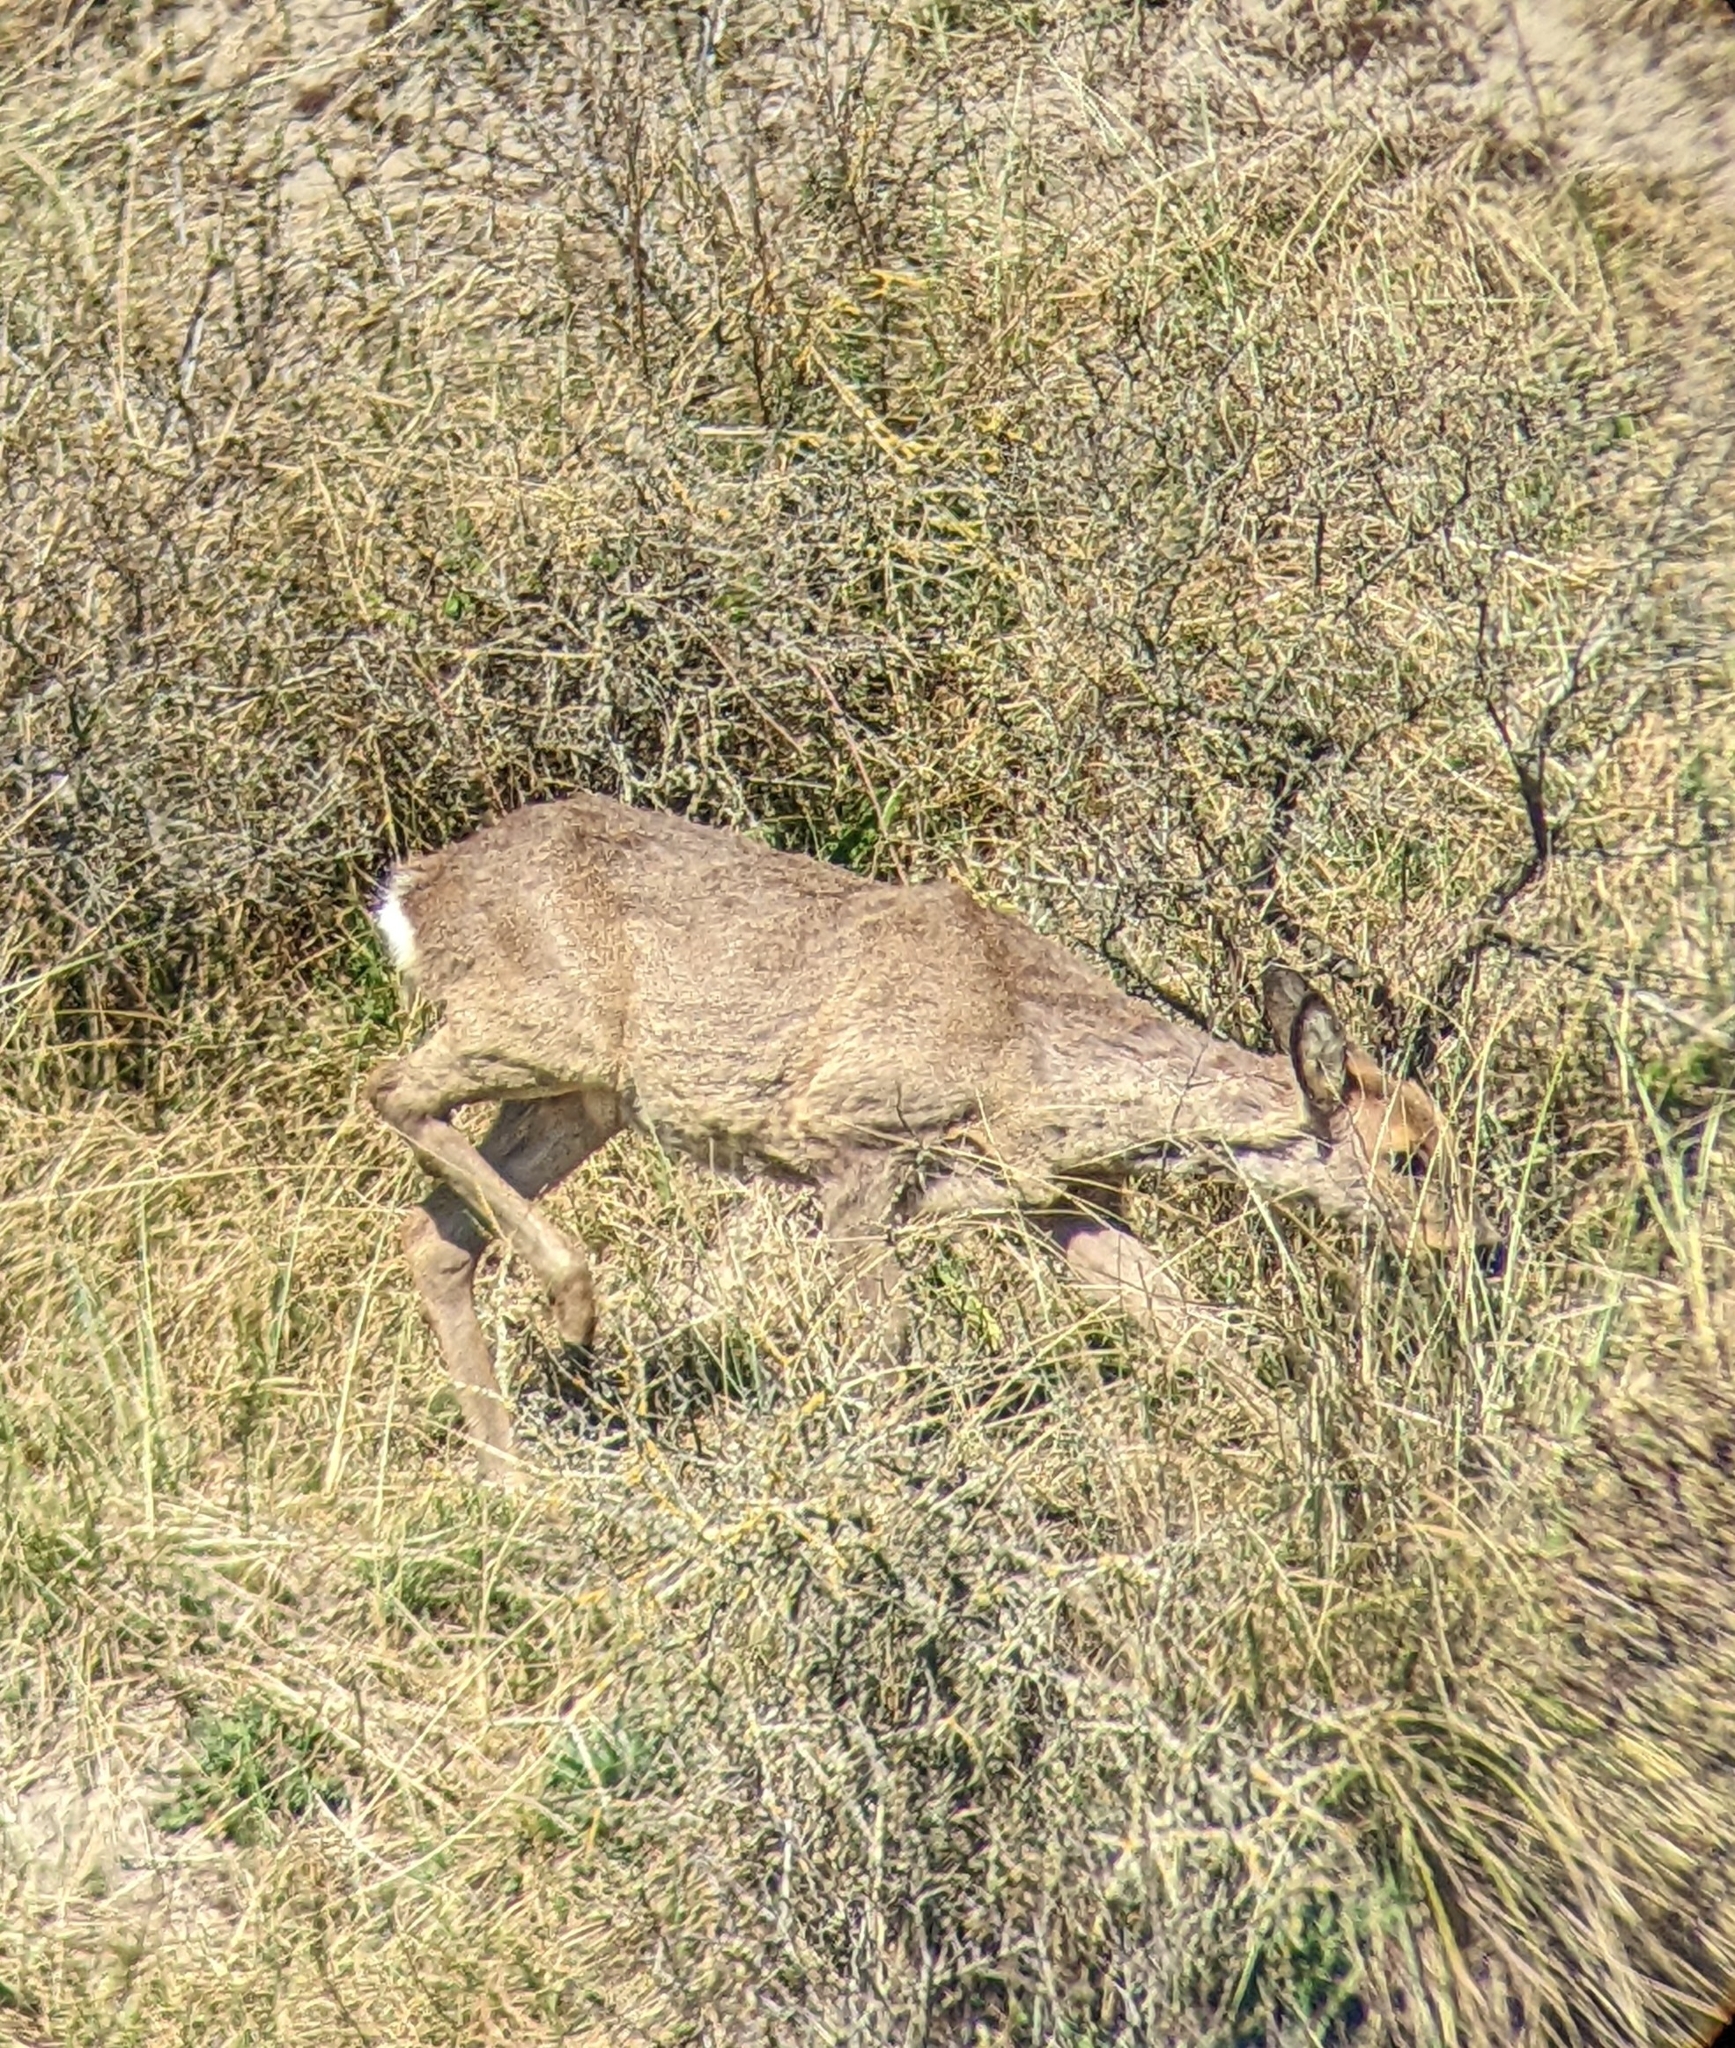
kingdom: Animalia
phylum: Chordata
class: Mammalia
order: Artiodactyla
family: Cervidae
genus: Capreolus
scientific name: Capreolus capreolus
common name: Western roe deer
